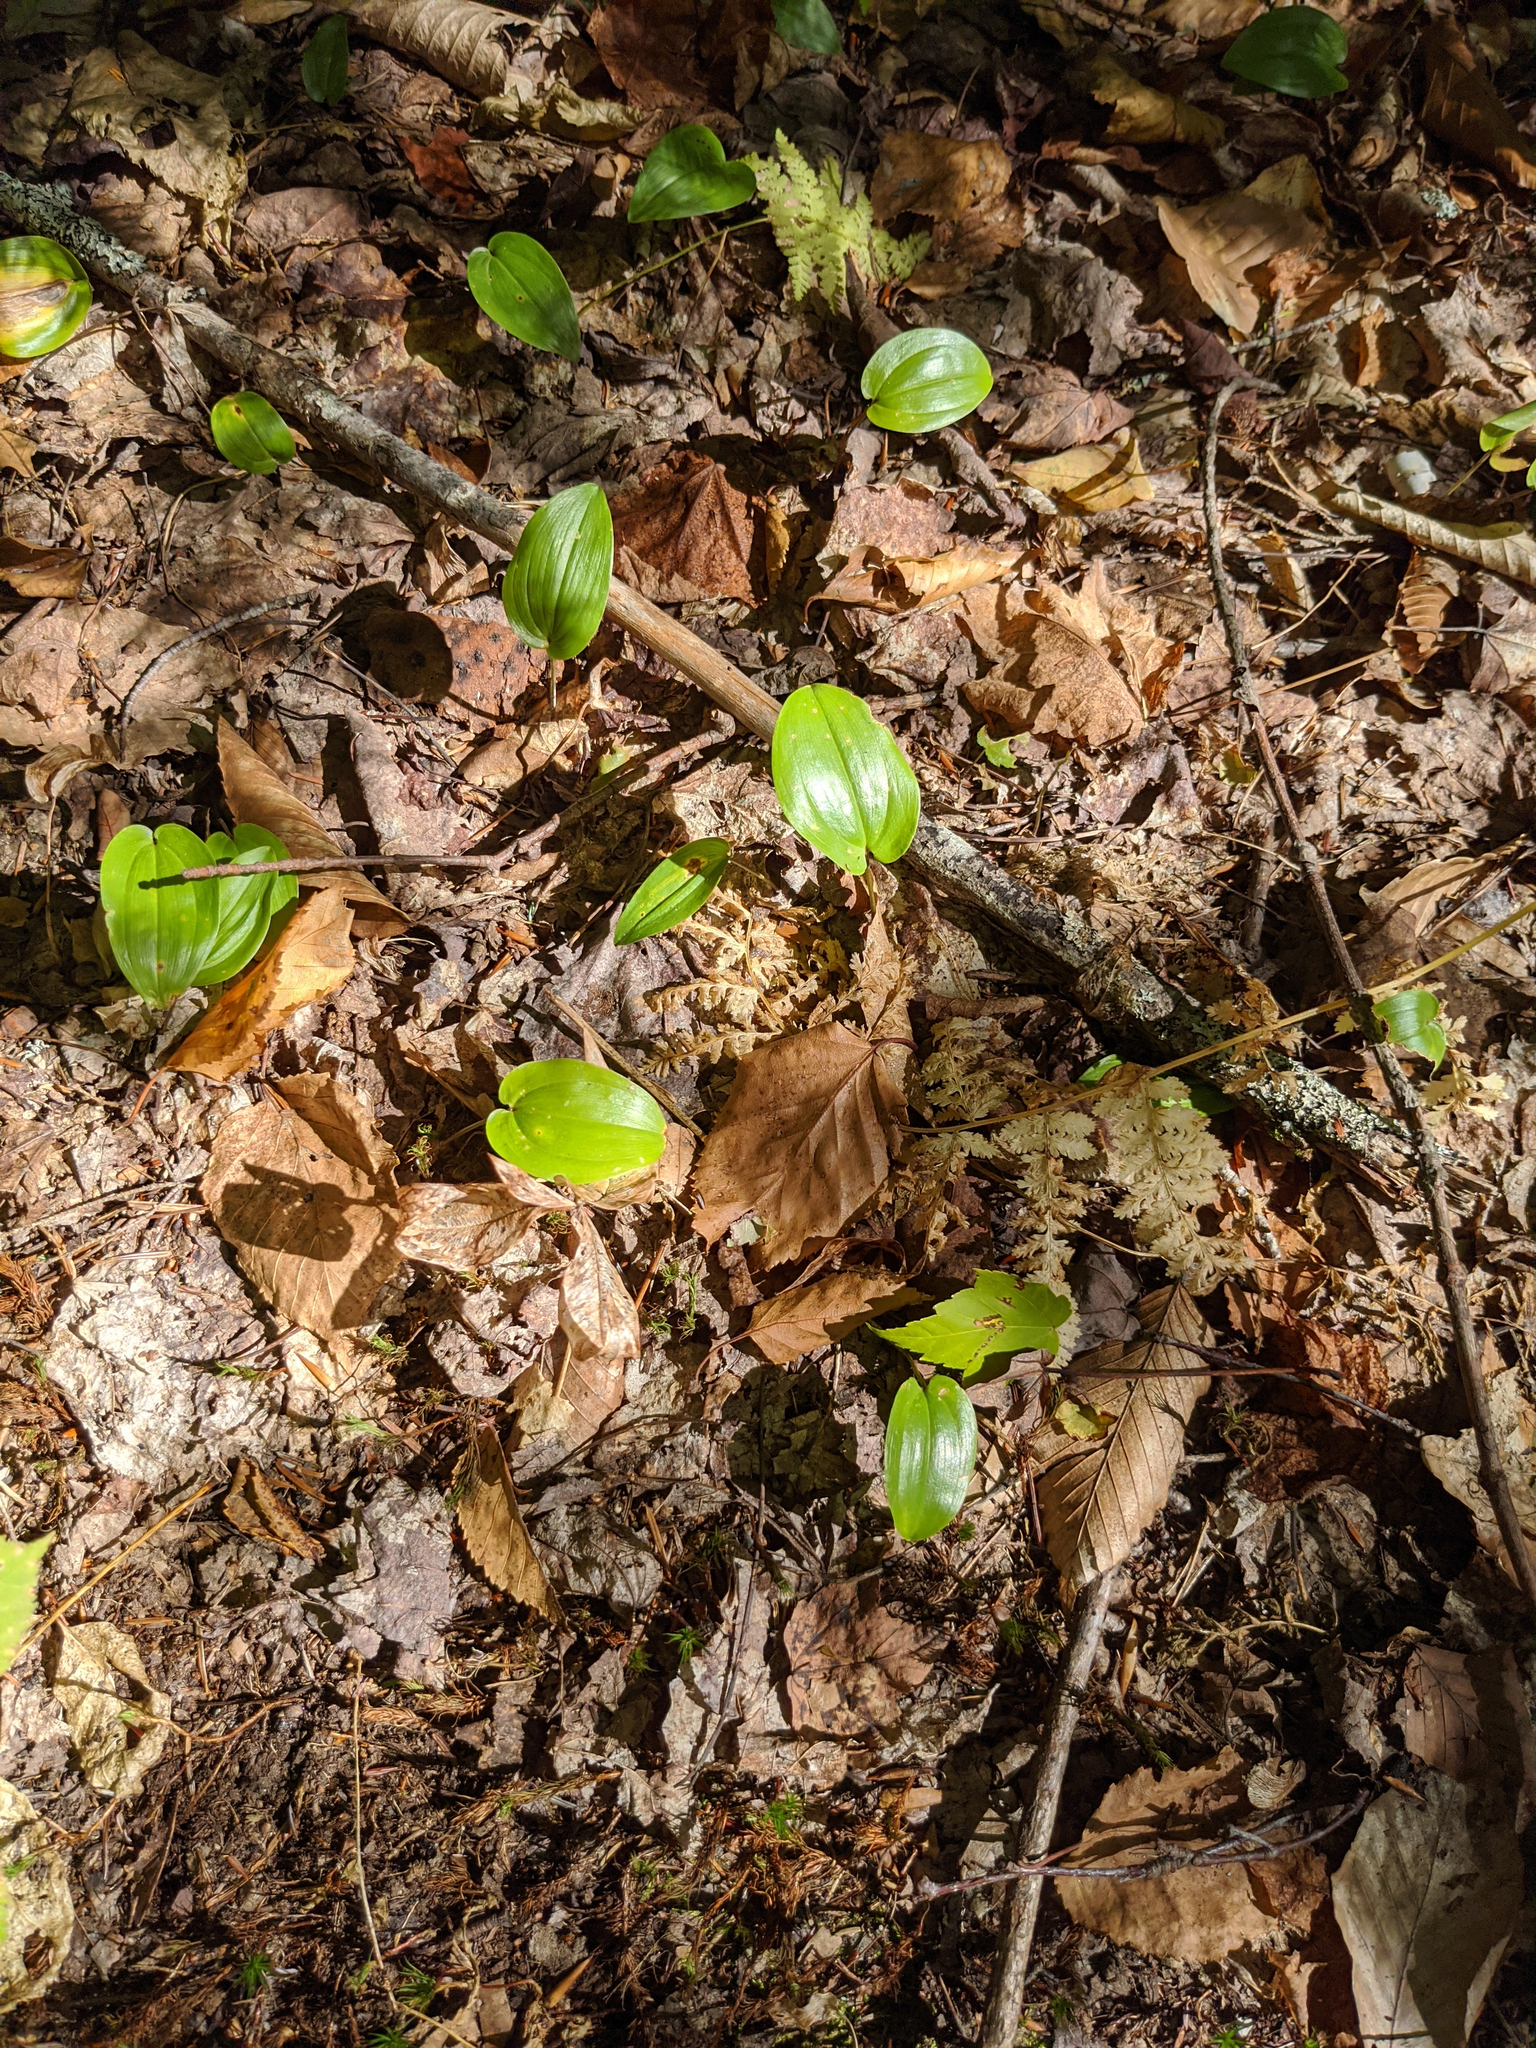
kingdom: Plantae
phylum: Tracheophyta
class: Liliopsida
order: Asparagales
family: Asparagaceae
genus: Maianthemum
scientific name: Maianthemum canadense
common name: False lily-of-the-valley
